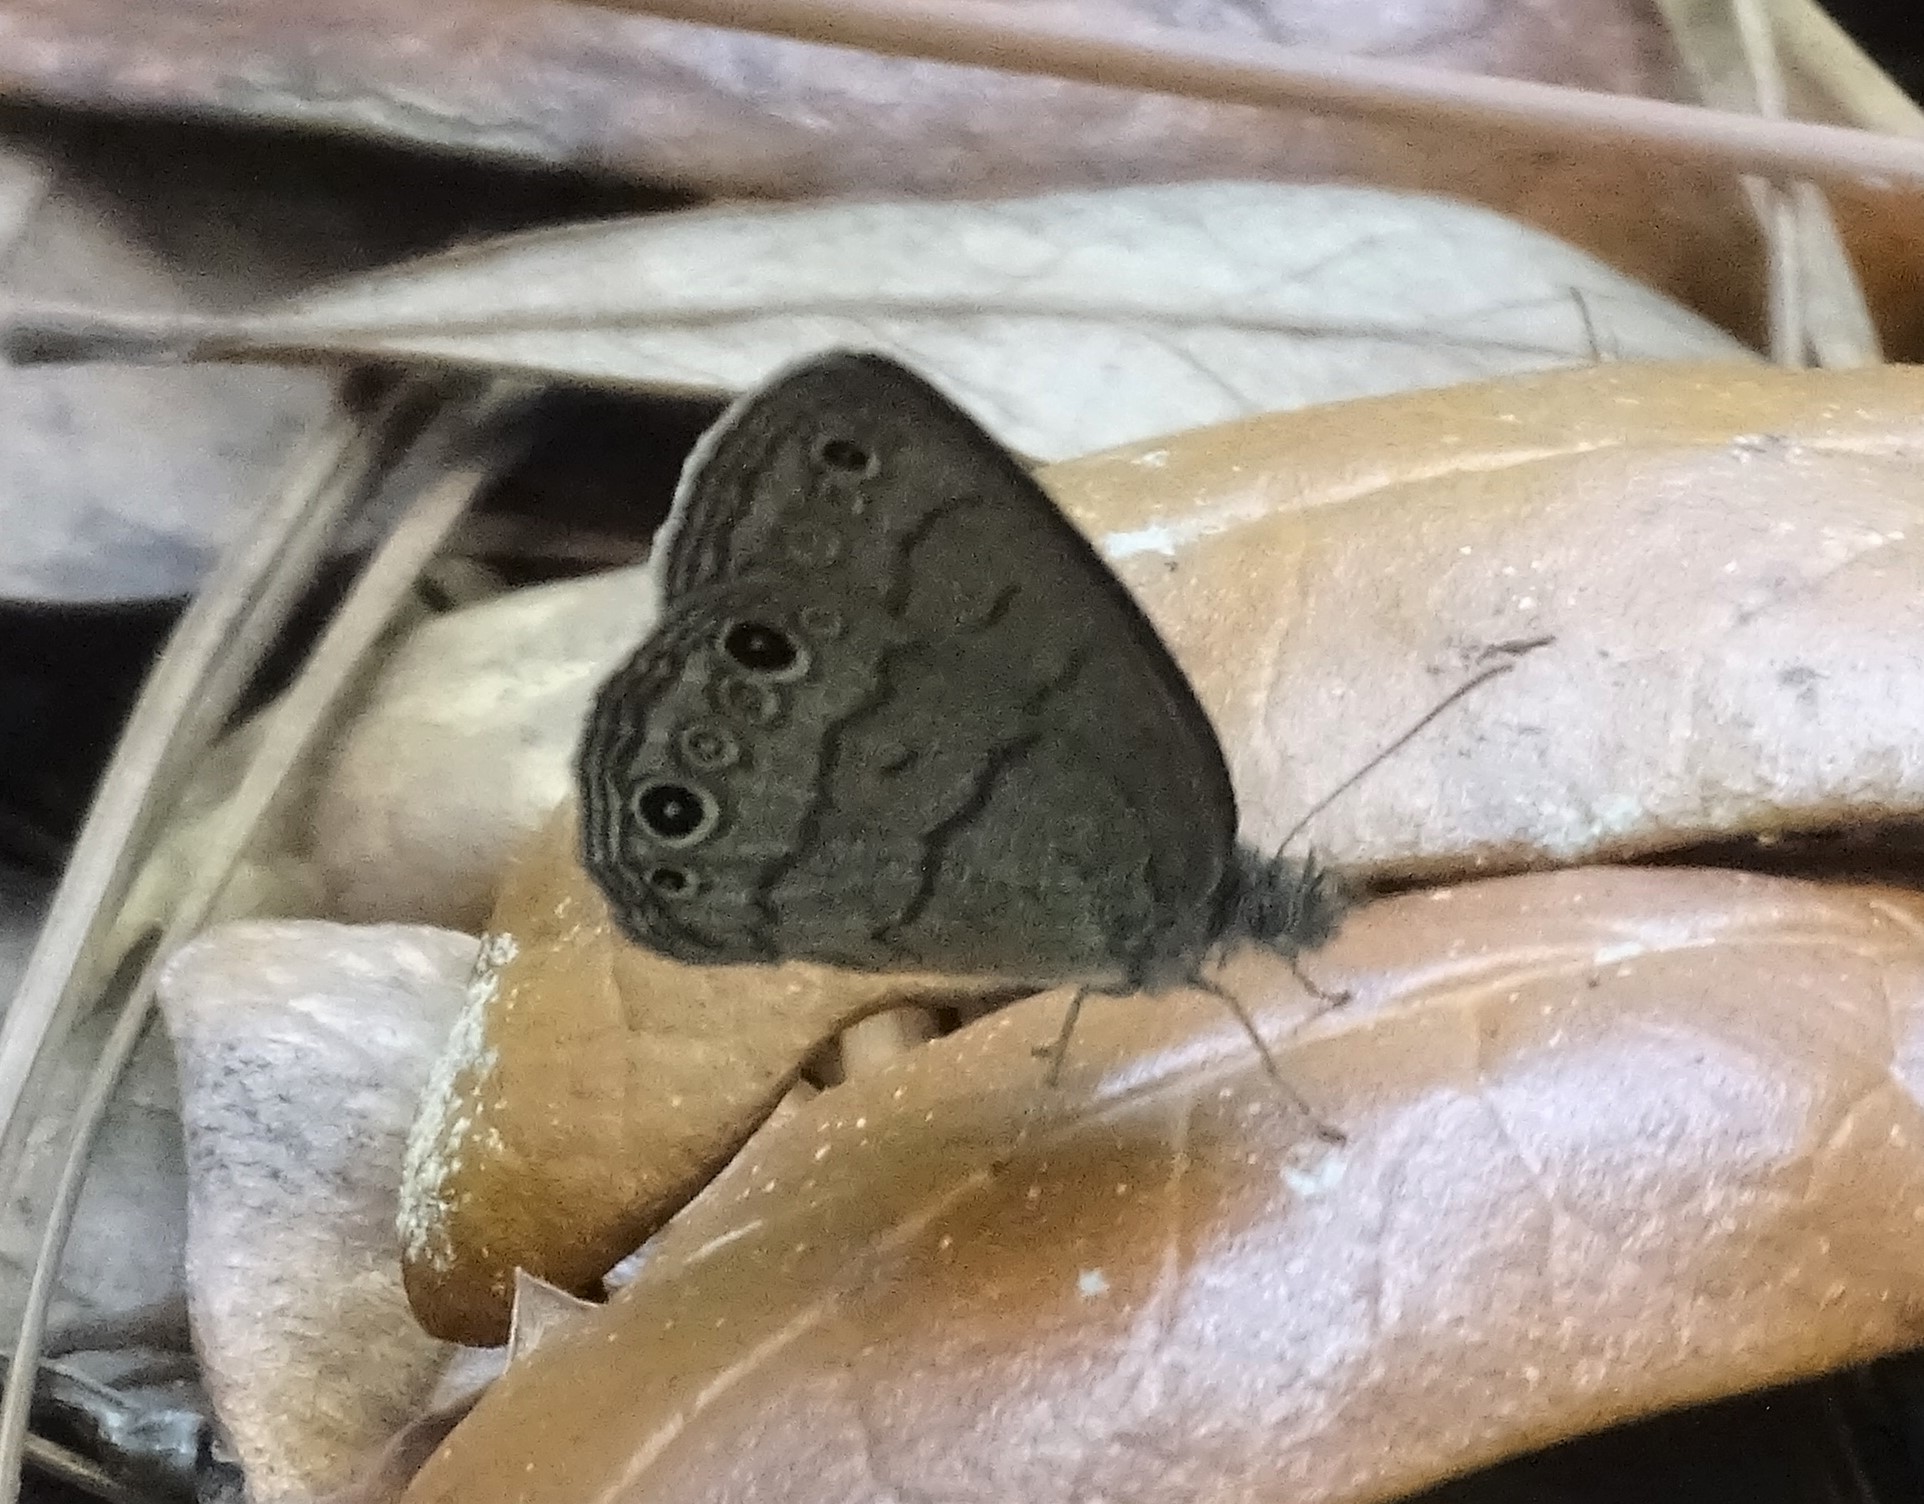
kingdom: Animalia
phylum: Arthropoda
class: Insecta
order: Lepidoptera
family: Nymphalidae
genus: Hermeuptychia
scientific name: Hermeuptychia hermes
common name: Hermes satyr
